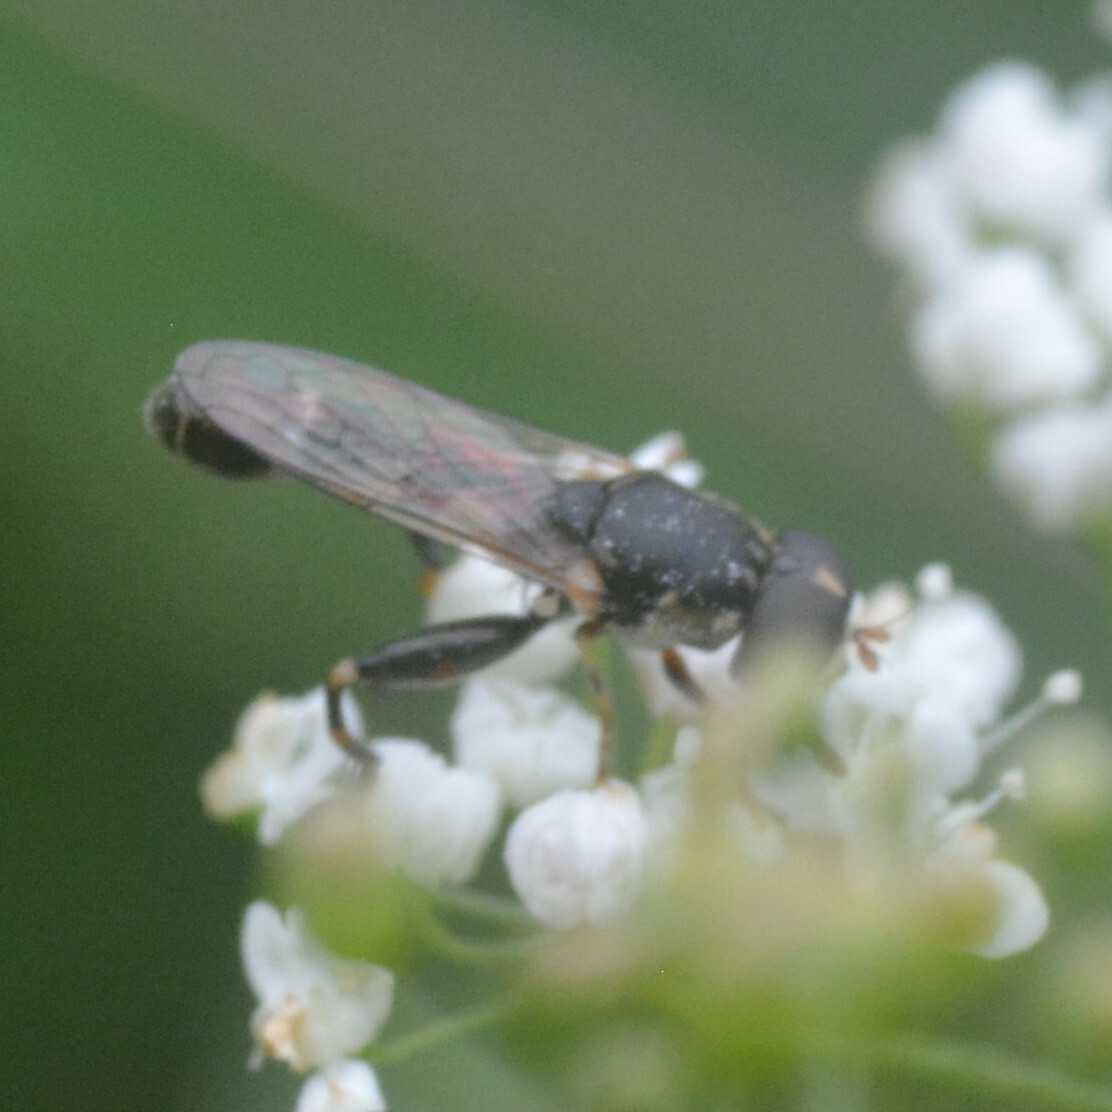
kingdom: Animalia
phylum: Arthropoda
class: Insecta
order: Diptera
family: Syrphidae
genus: Syritta
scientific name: Syritta pipiens
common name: Hover fly
